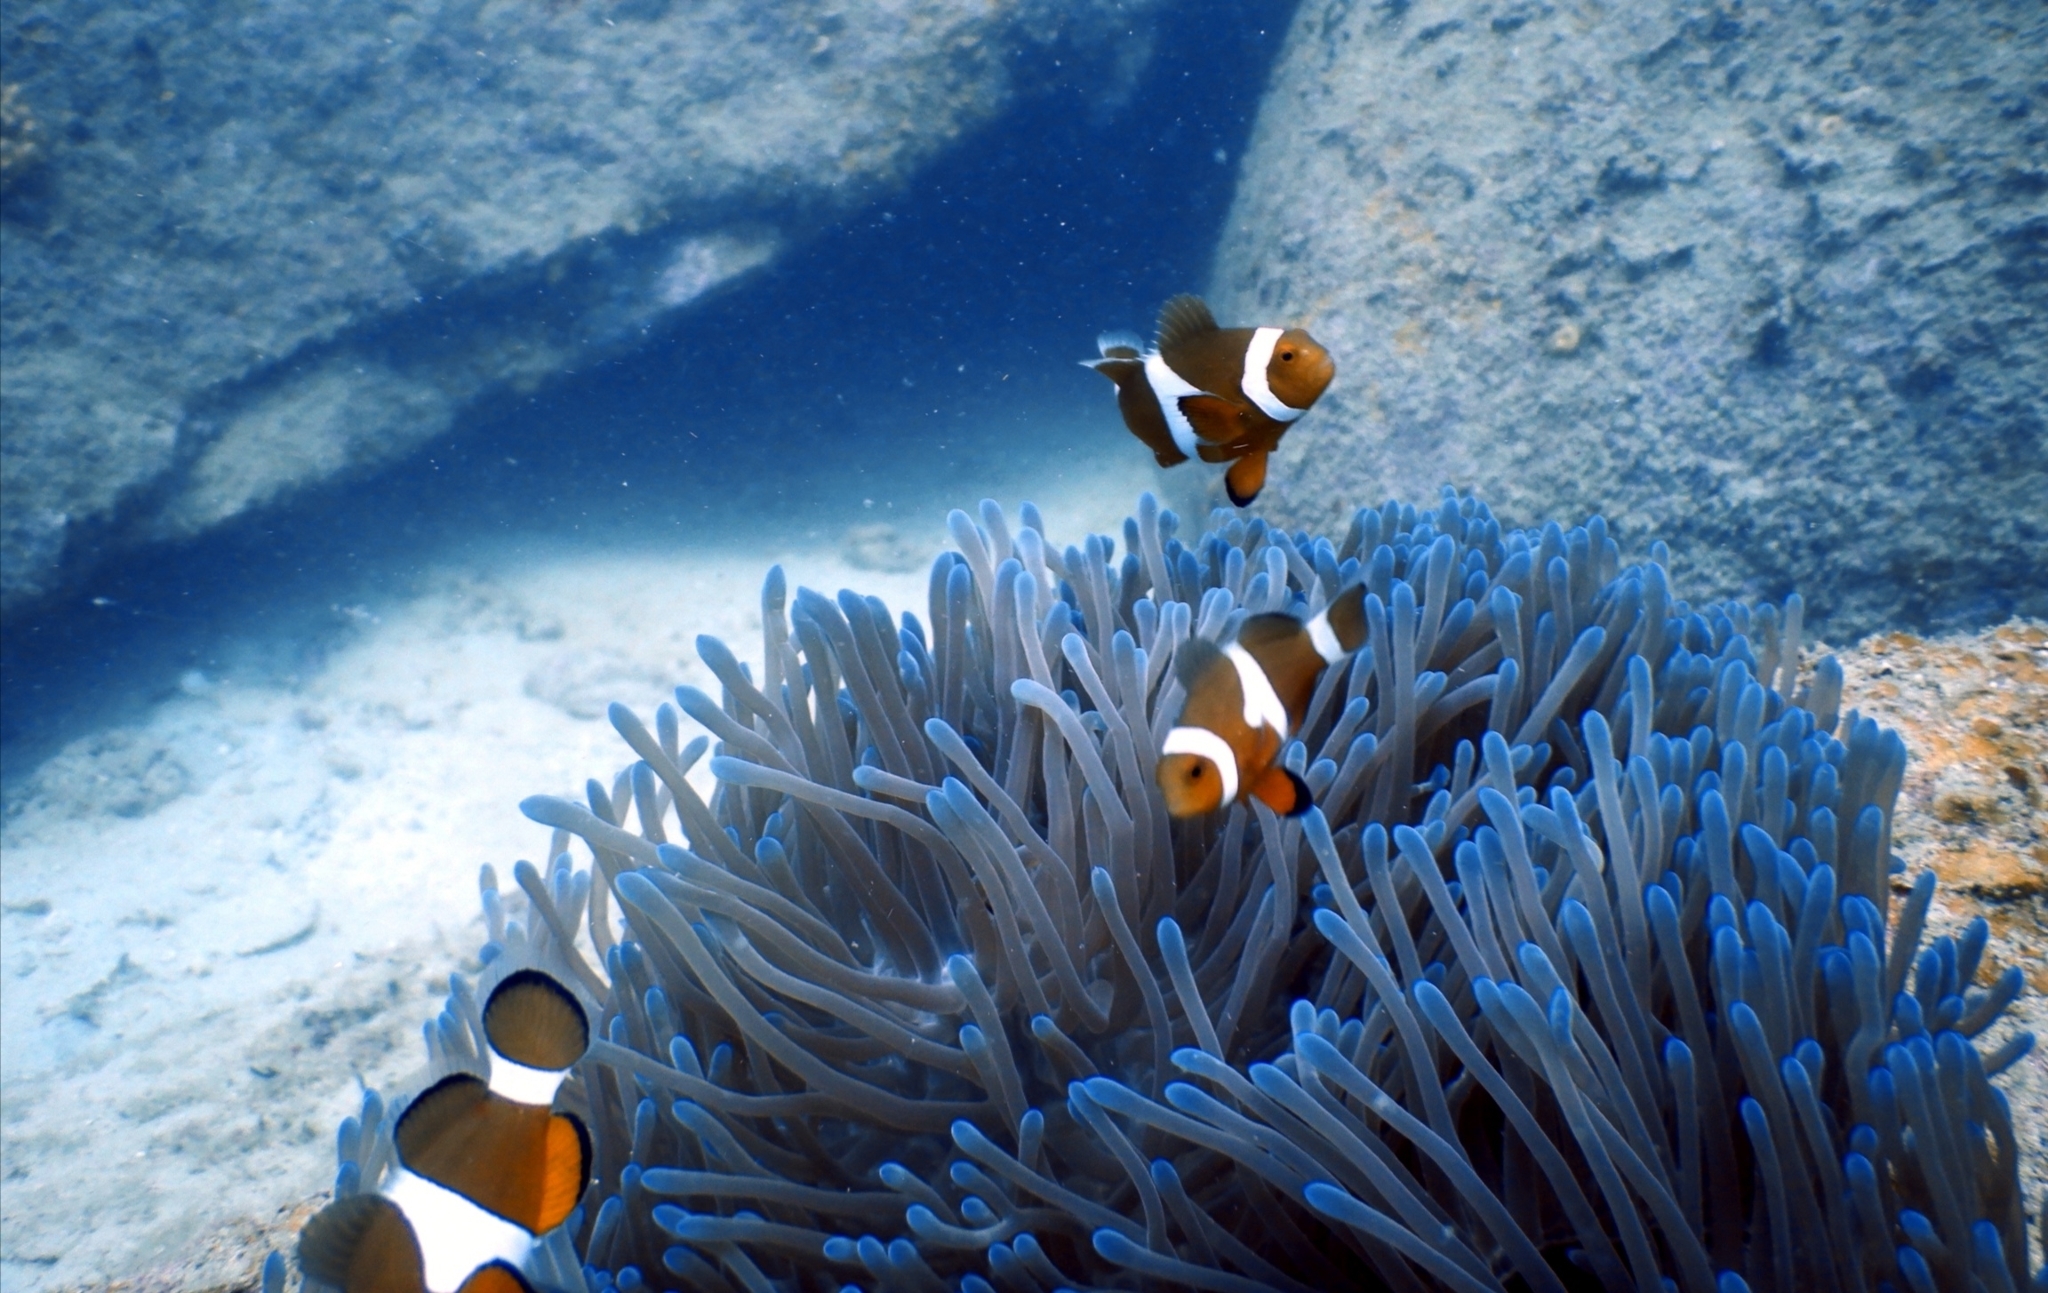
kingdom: Animalia
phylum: Chordata
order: Perciformes
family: Pomacentridae
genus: Amphiprion
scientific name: Amphiprion ocellaris
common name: Clown anemonefish
